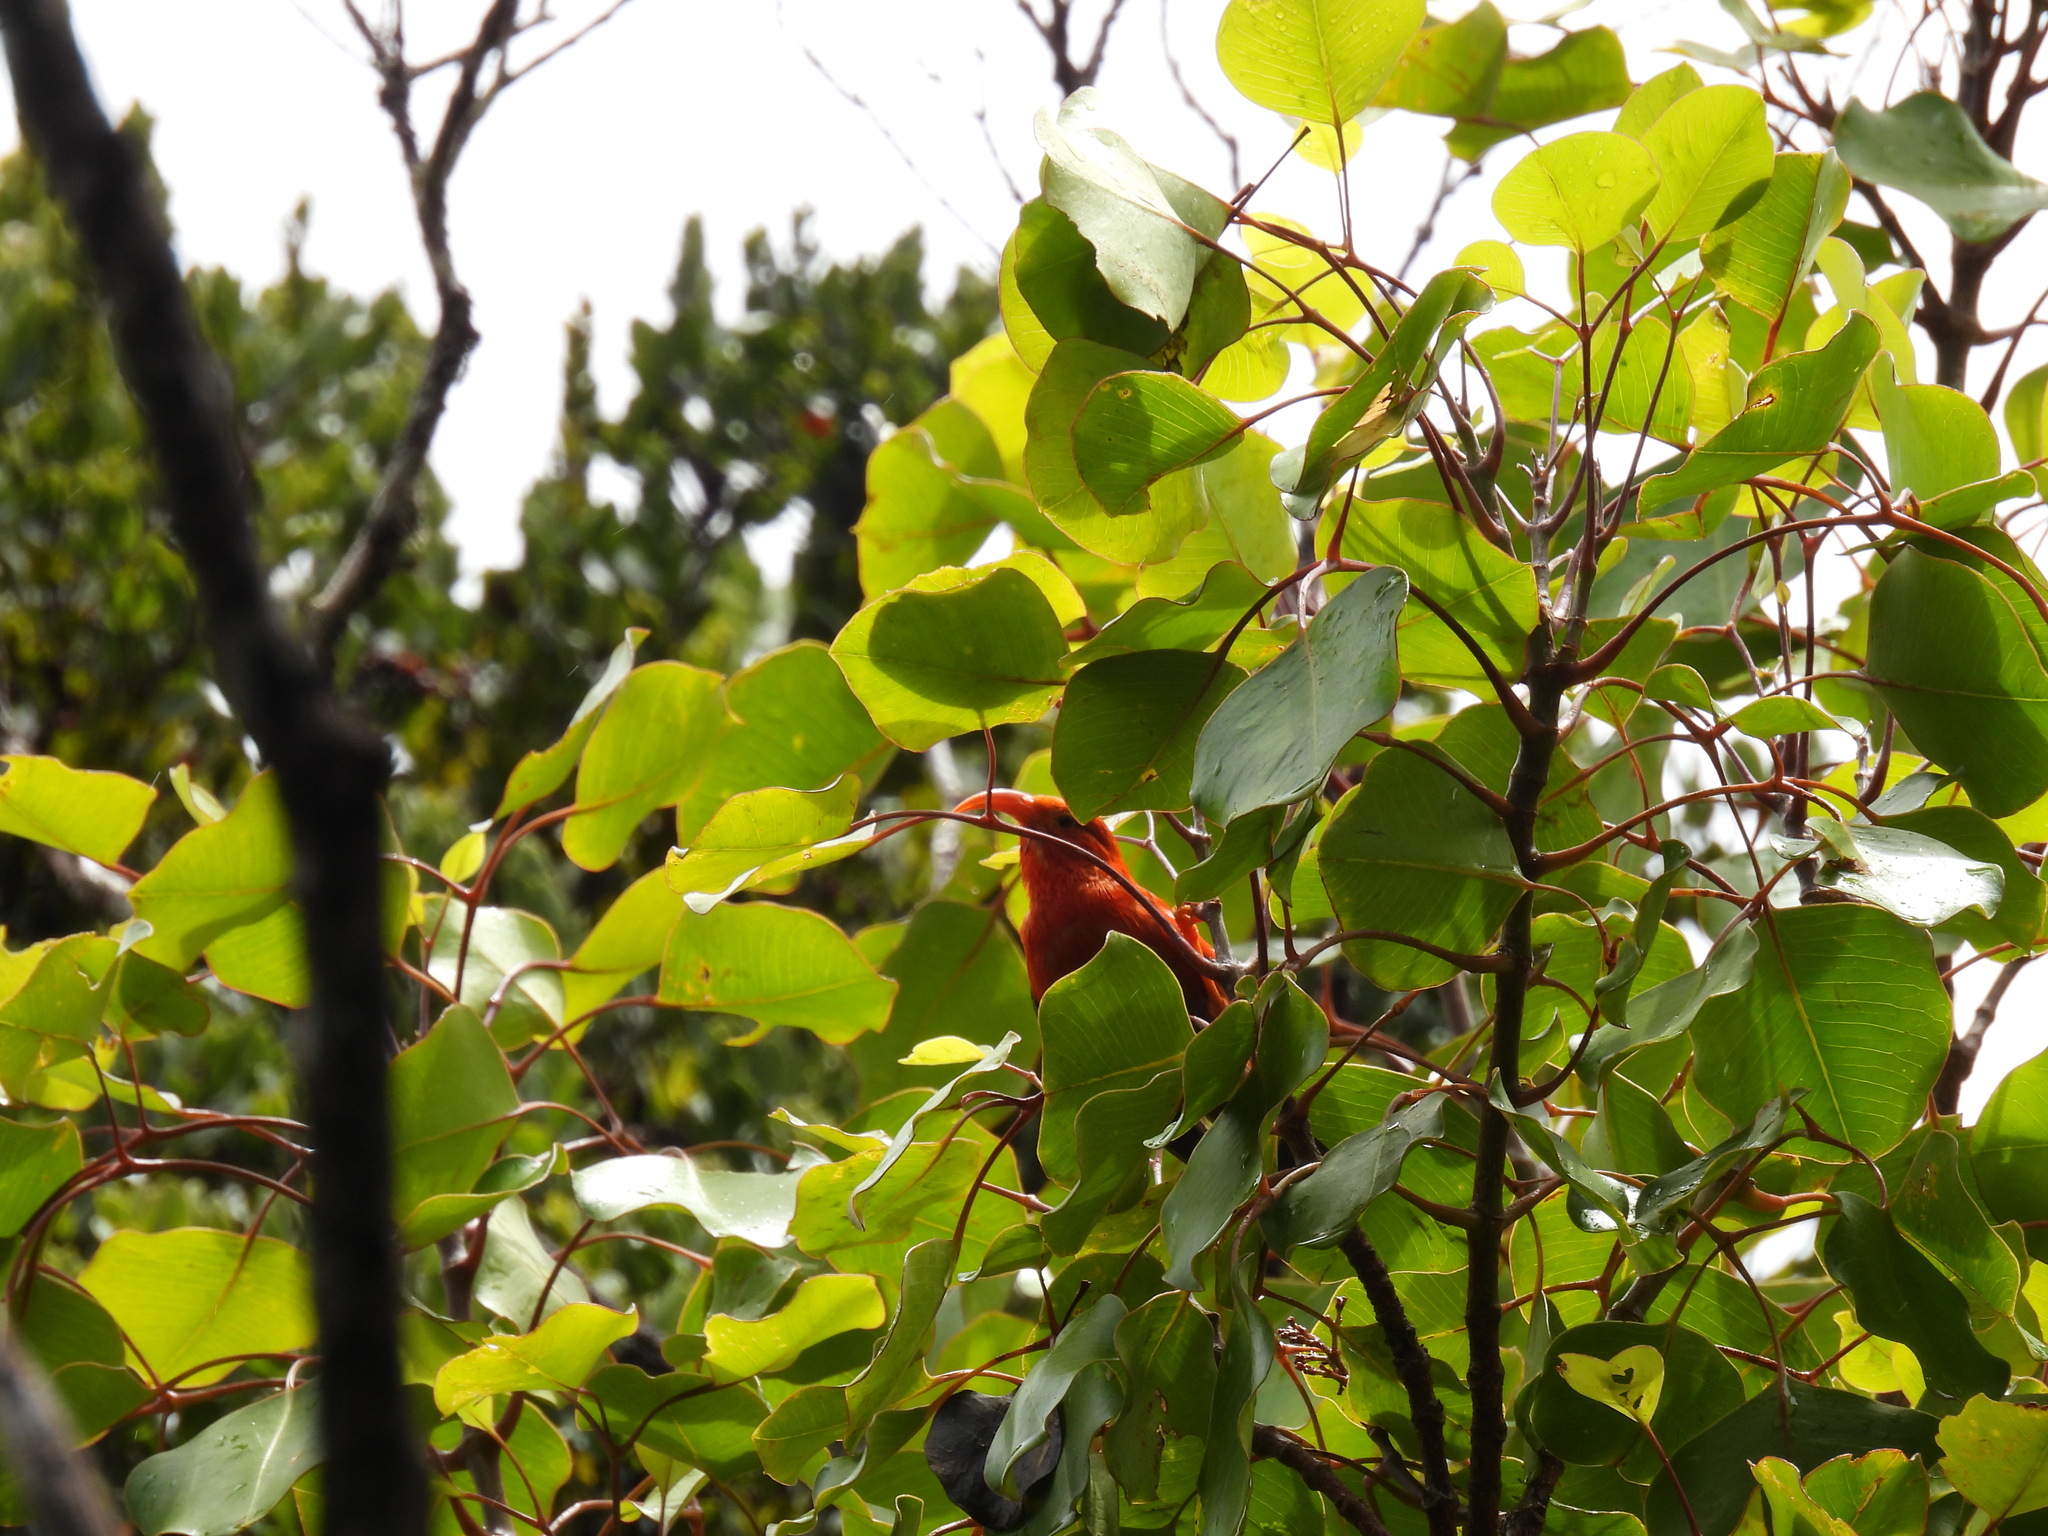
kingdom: Animalia
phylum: Chordata
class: Aves
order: Passeriformes
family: Fringillidae
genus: Vestiaria
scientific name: Vestiaria coccinea
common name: Iiwi
